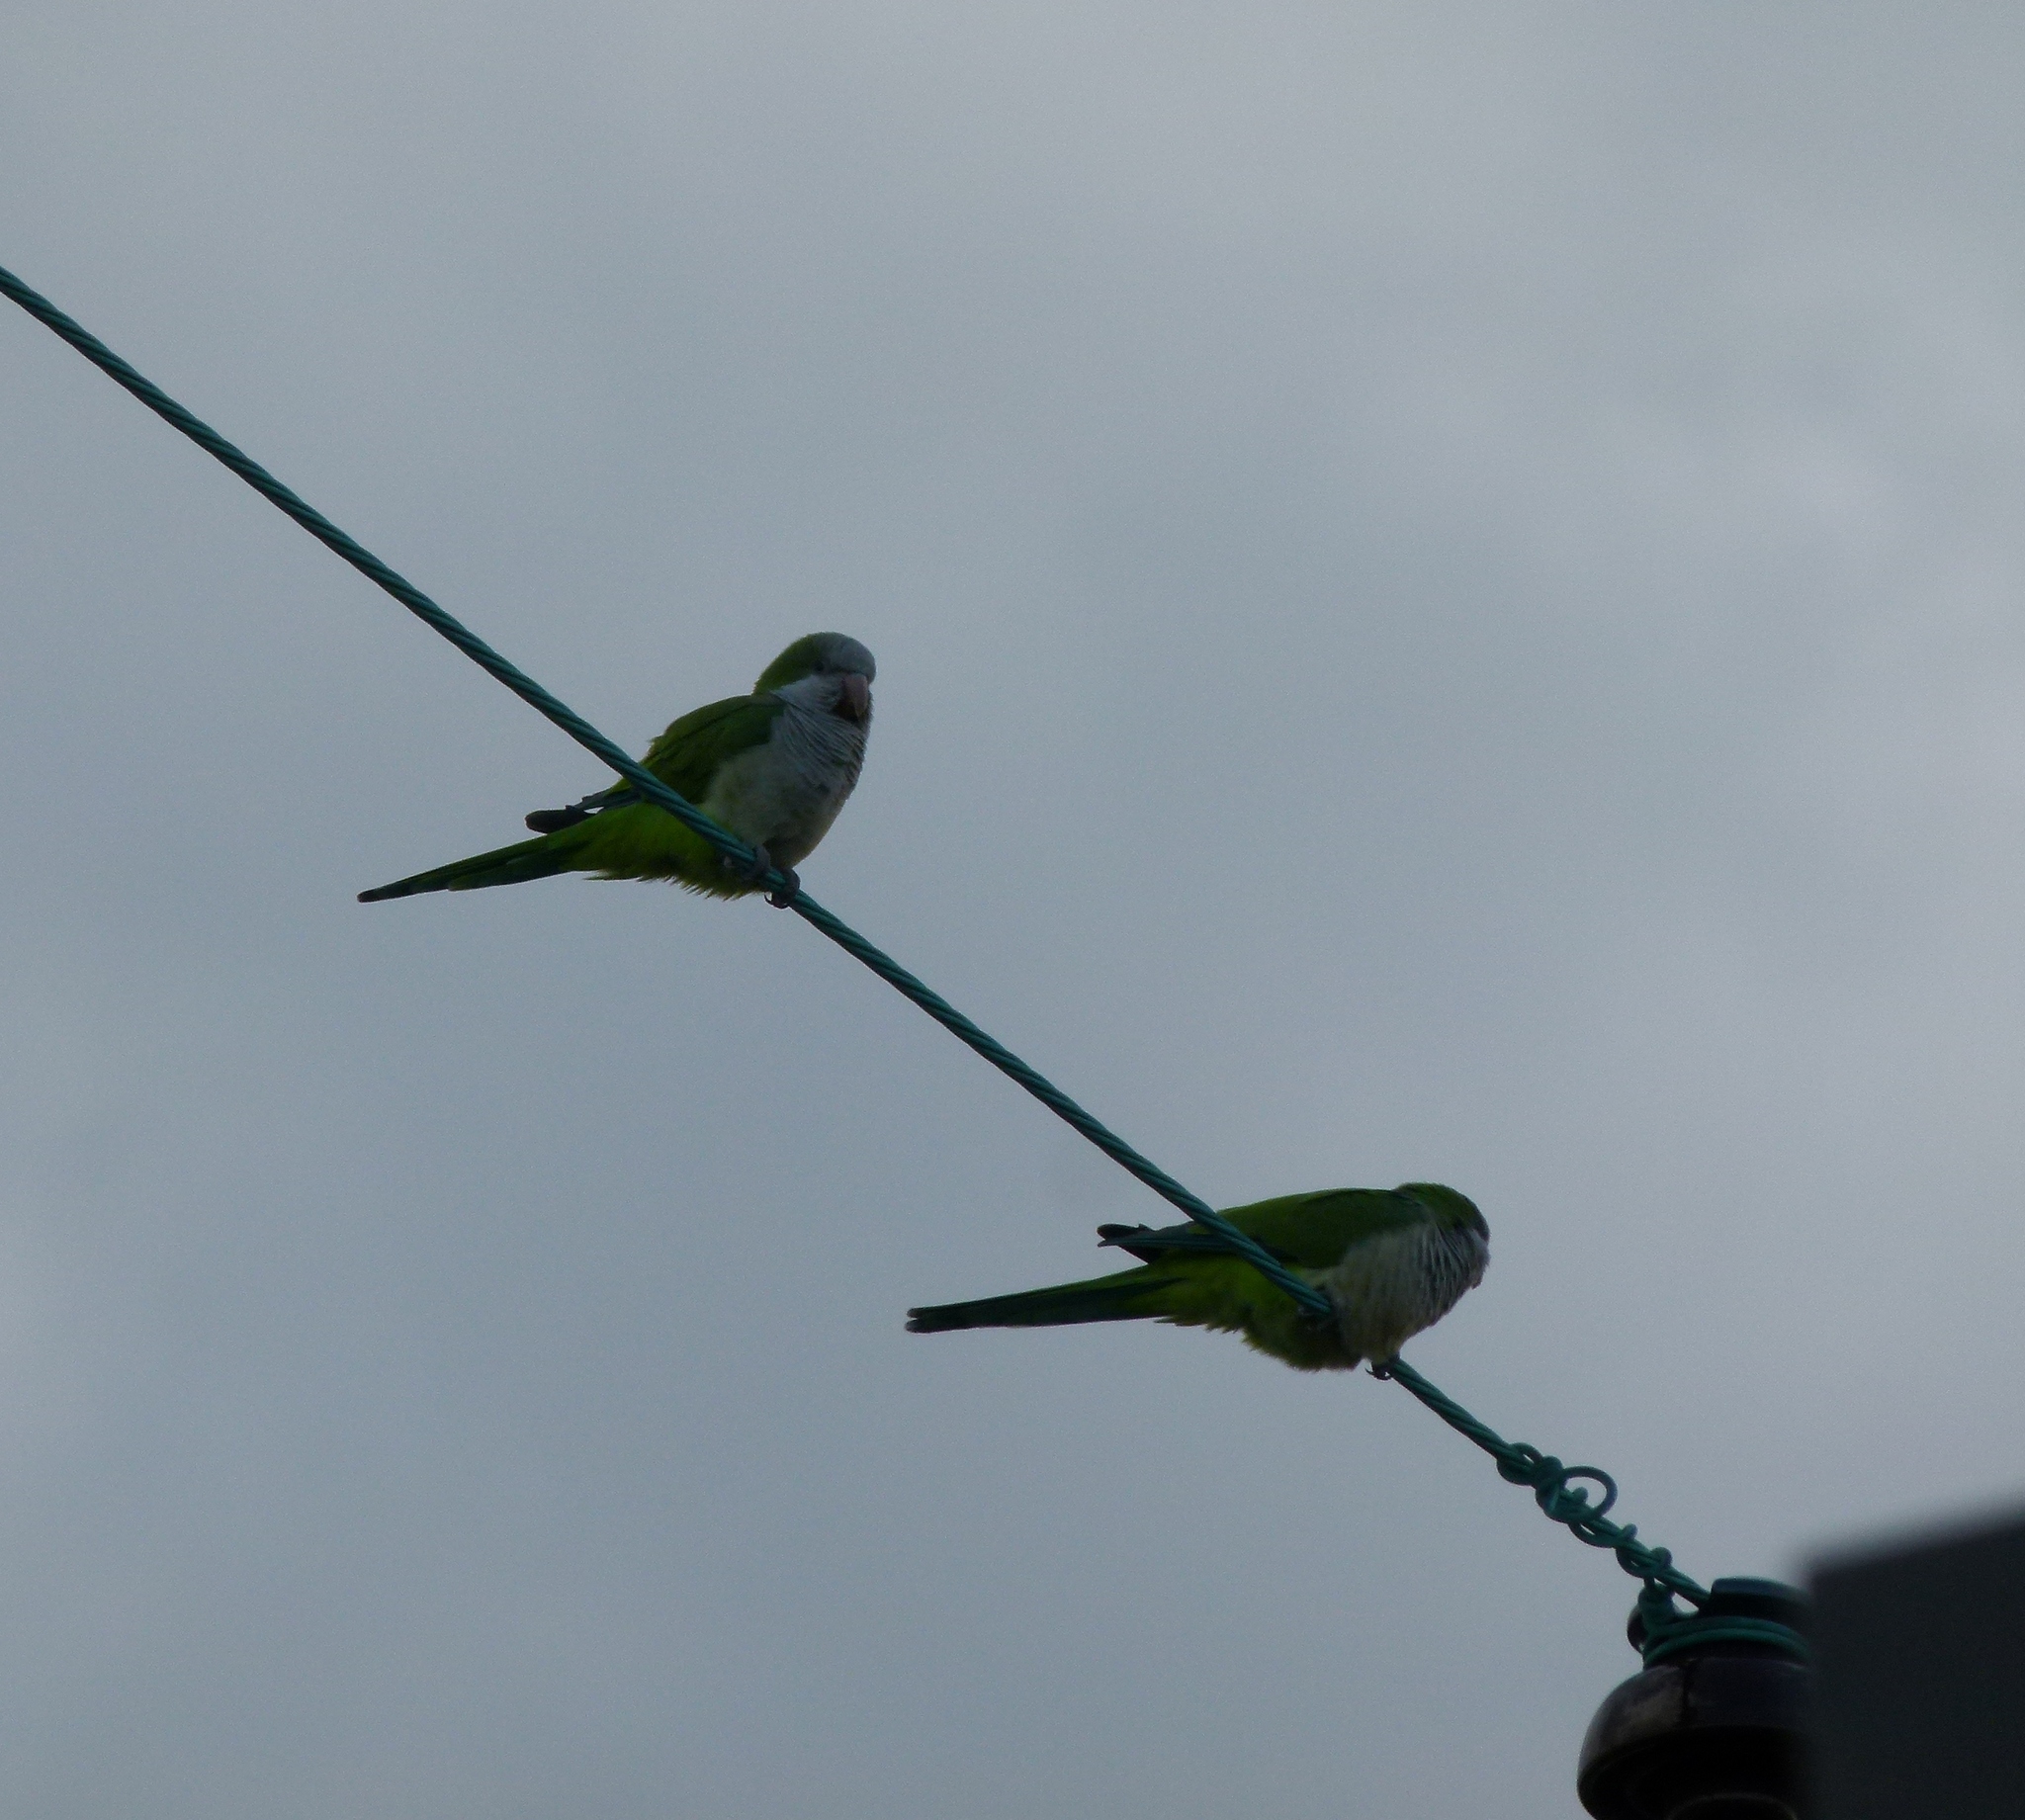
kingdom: Animalia
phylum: Chordata
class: Aves
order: Psittaciformes
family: Psittacidae
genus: Myiopsitta
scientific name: Myiopsitta monachus
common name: Monk parakeet
